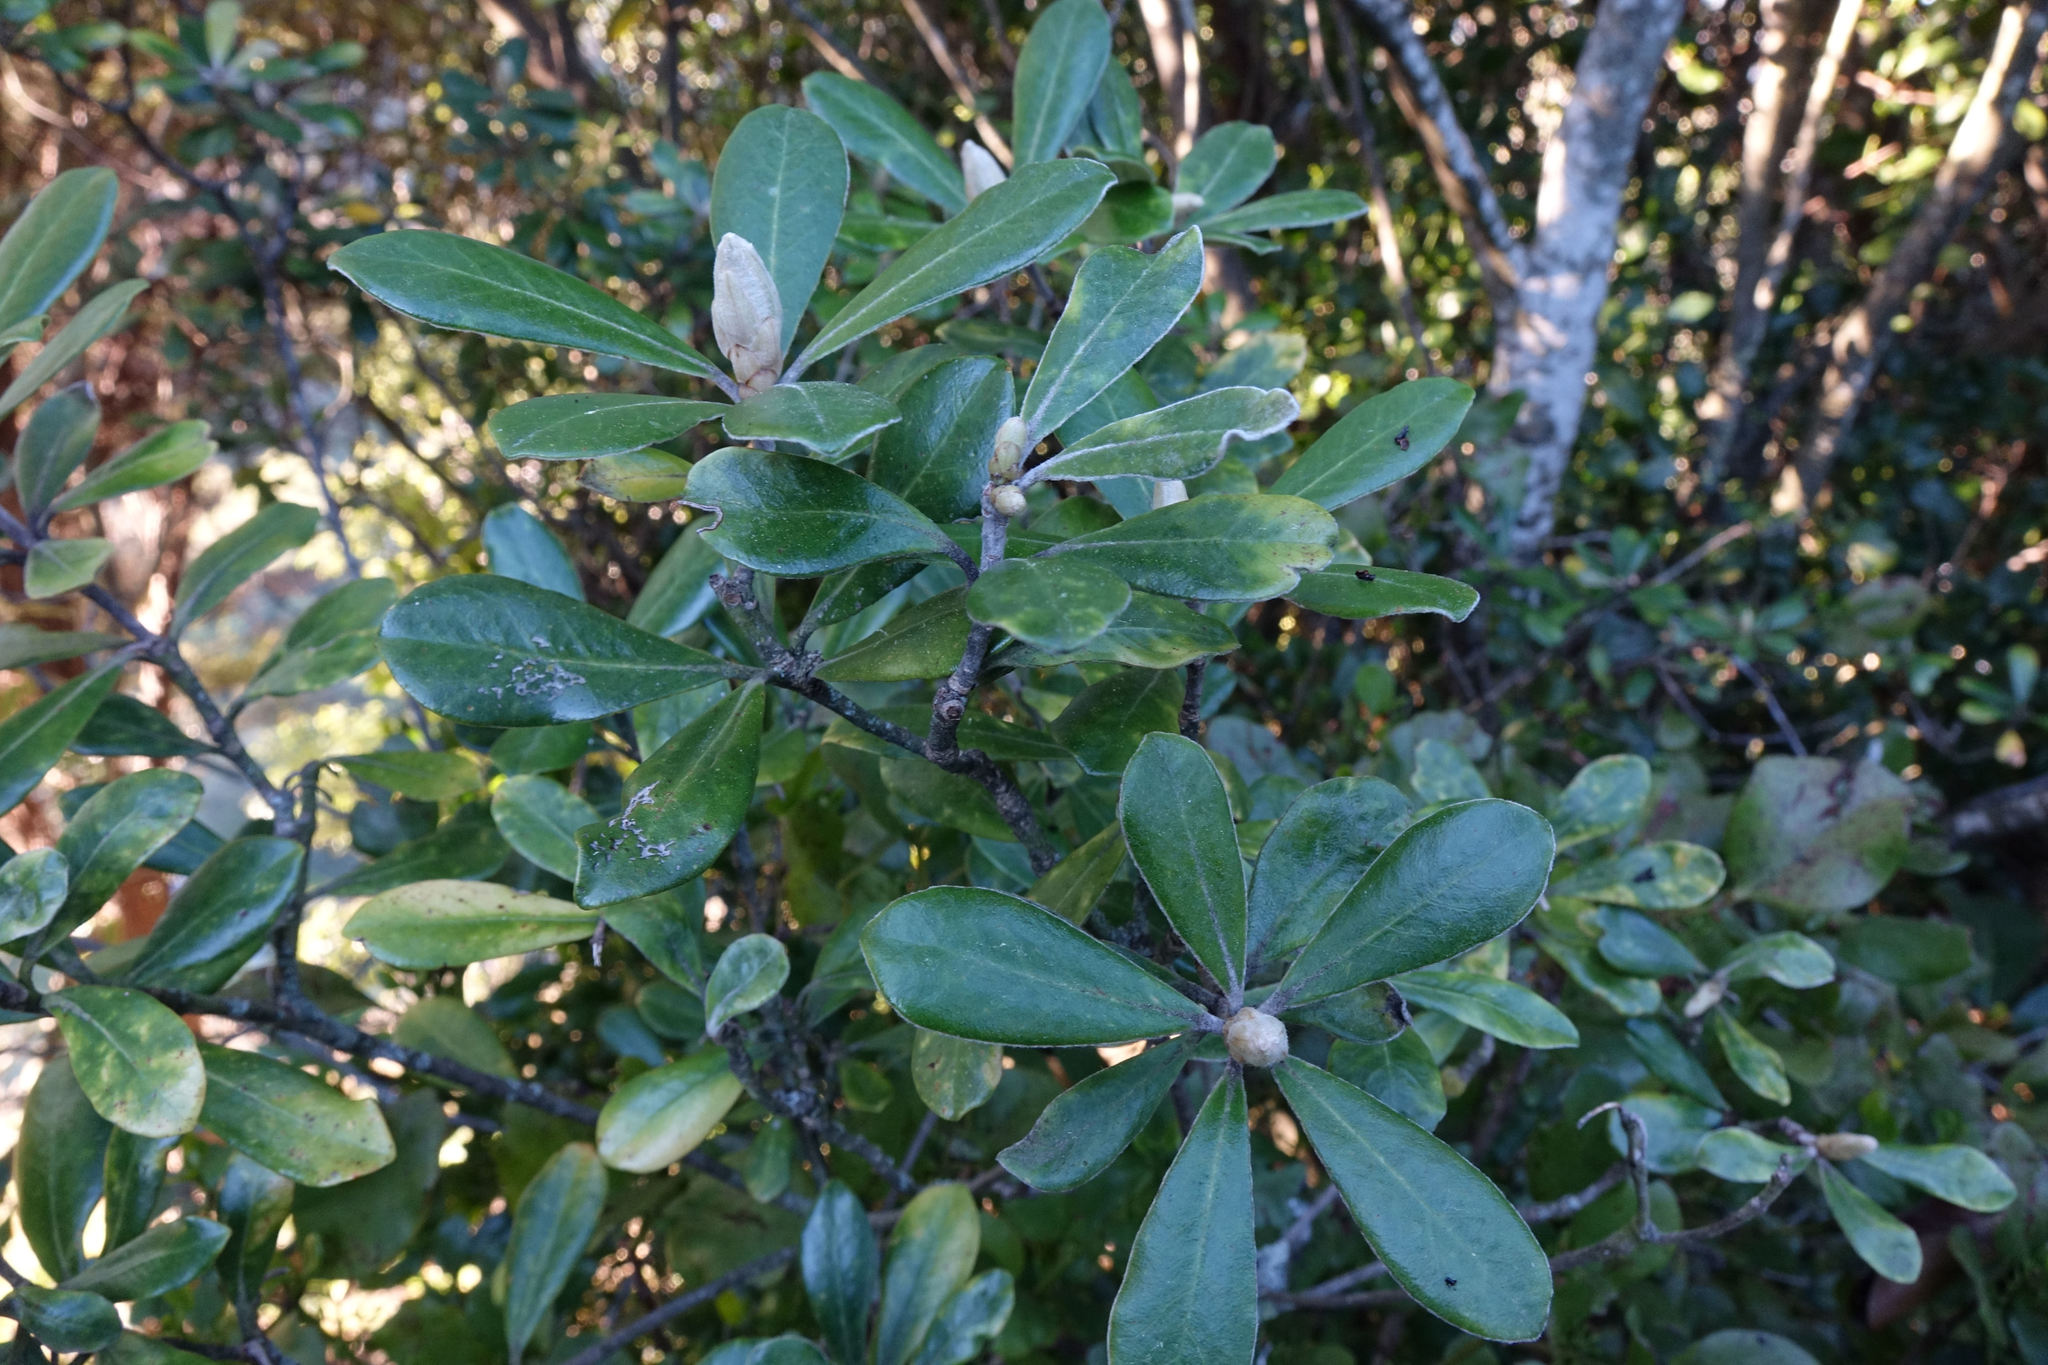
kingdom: Plantae
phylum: Tracheophyta
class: Magnoliopsida
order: Santalales
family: Loranthaceae
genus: Ileostylus
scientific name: Ileostylus micranthus
